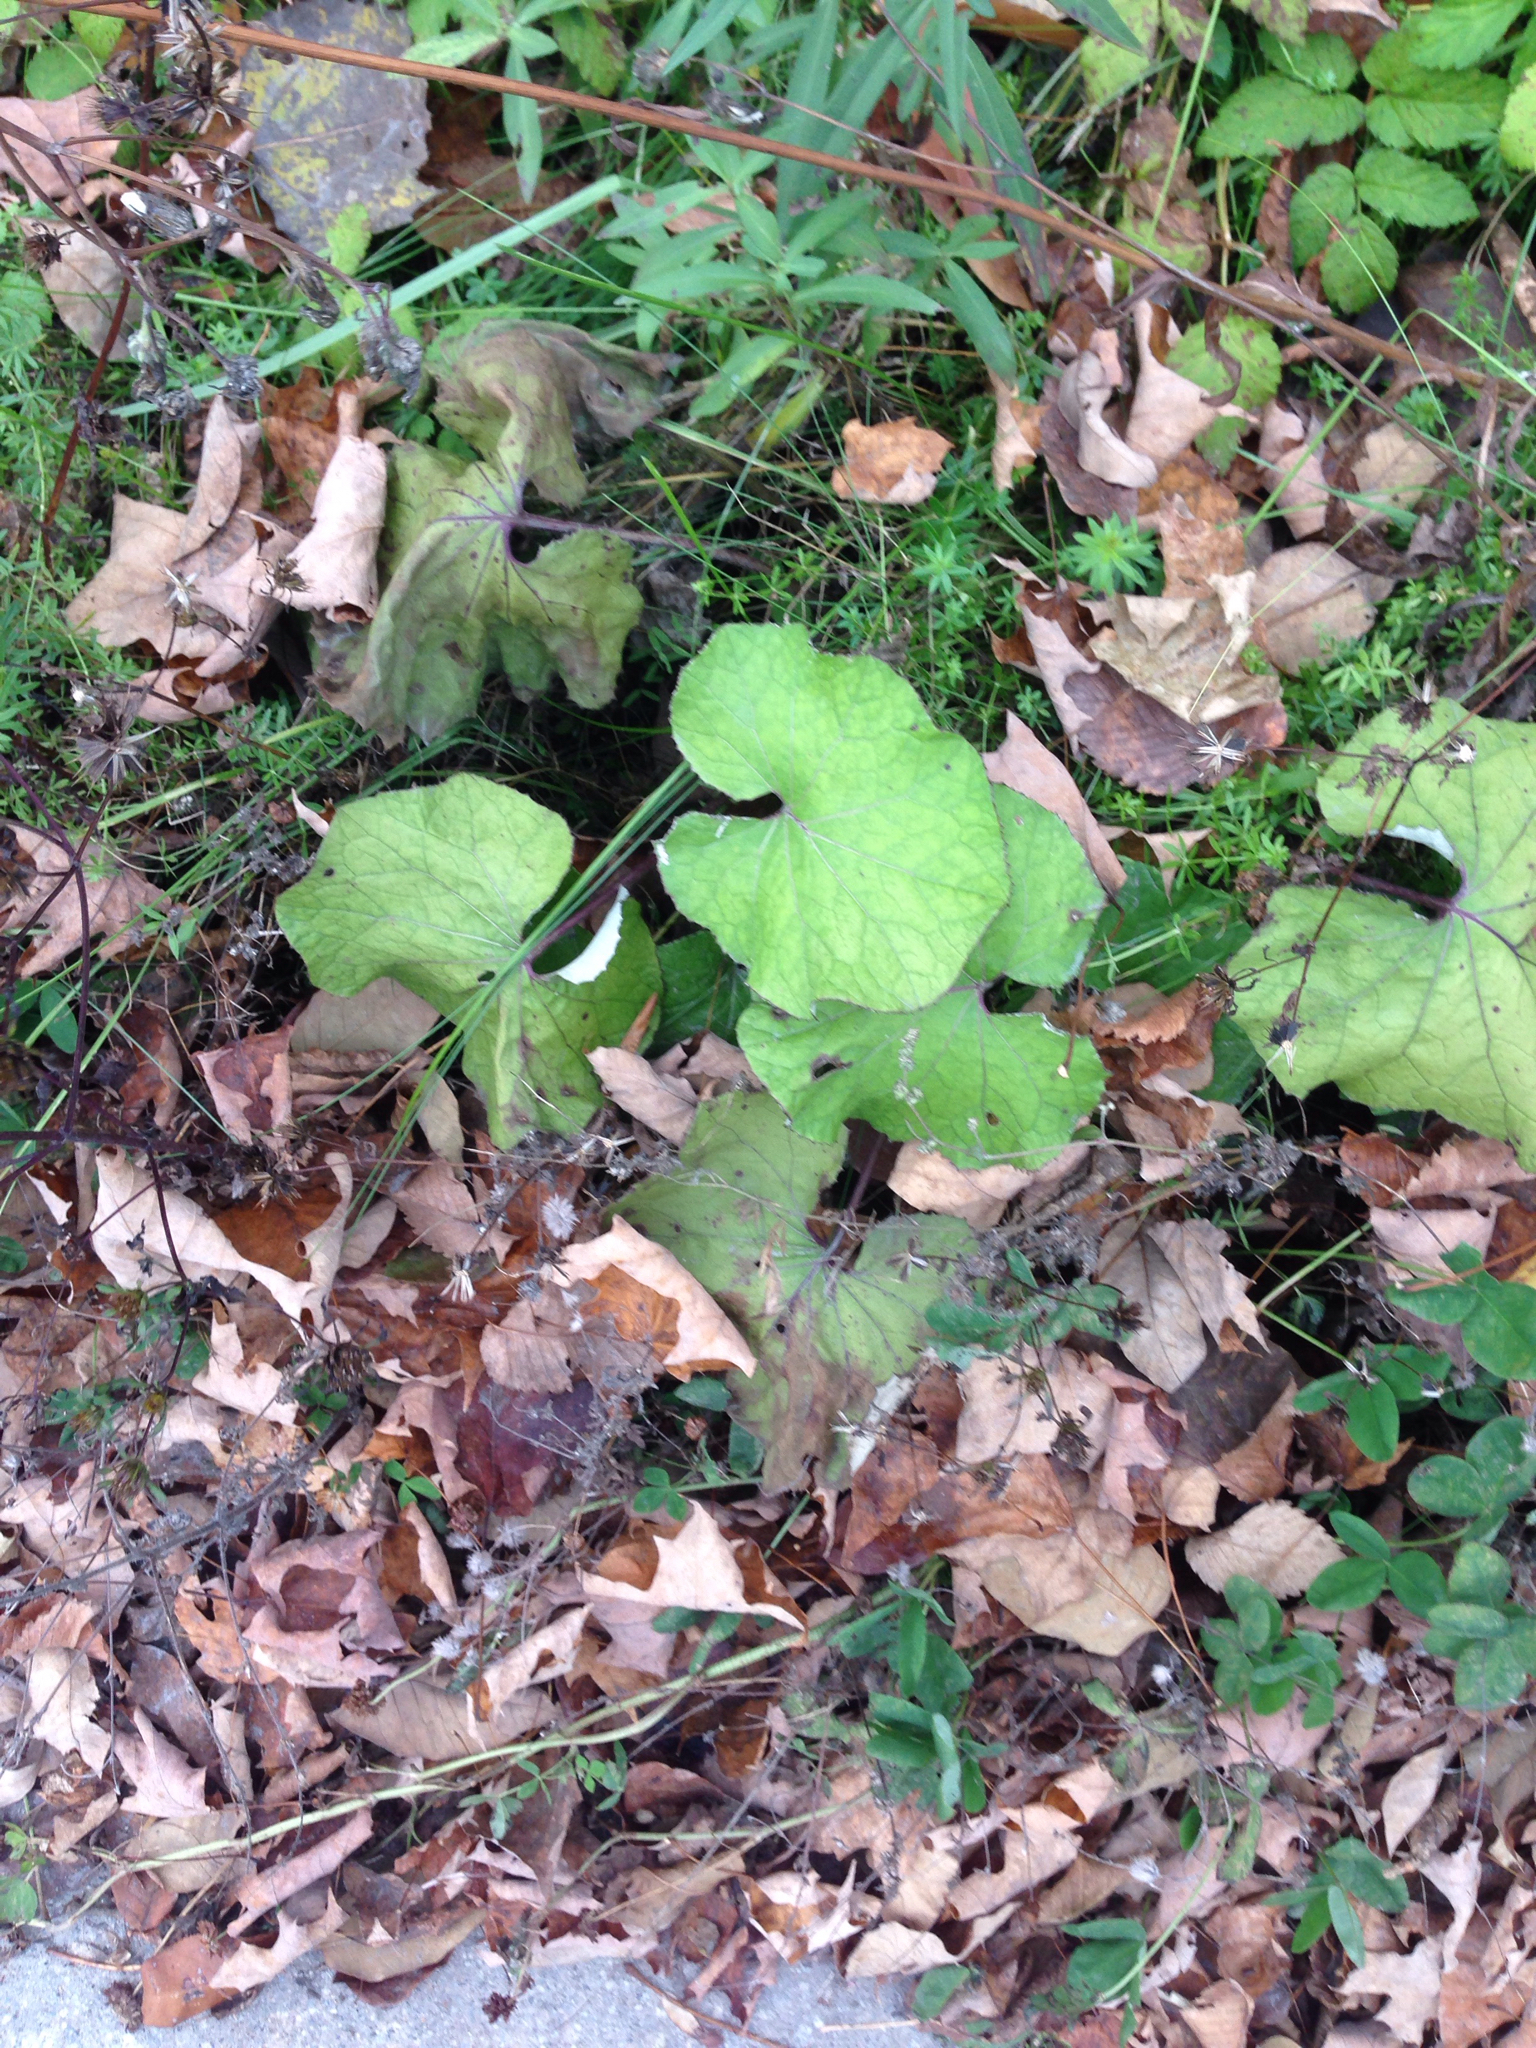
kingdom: Plantae
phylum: Tracheophyta
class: Magnoliopsida
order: Asterales
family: Asteraceae
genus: Tussilago
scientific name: Tussilago farfara
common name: Coltsfoot
